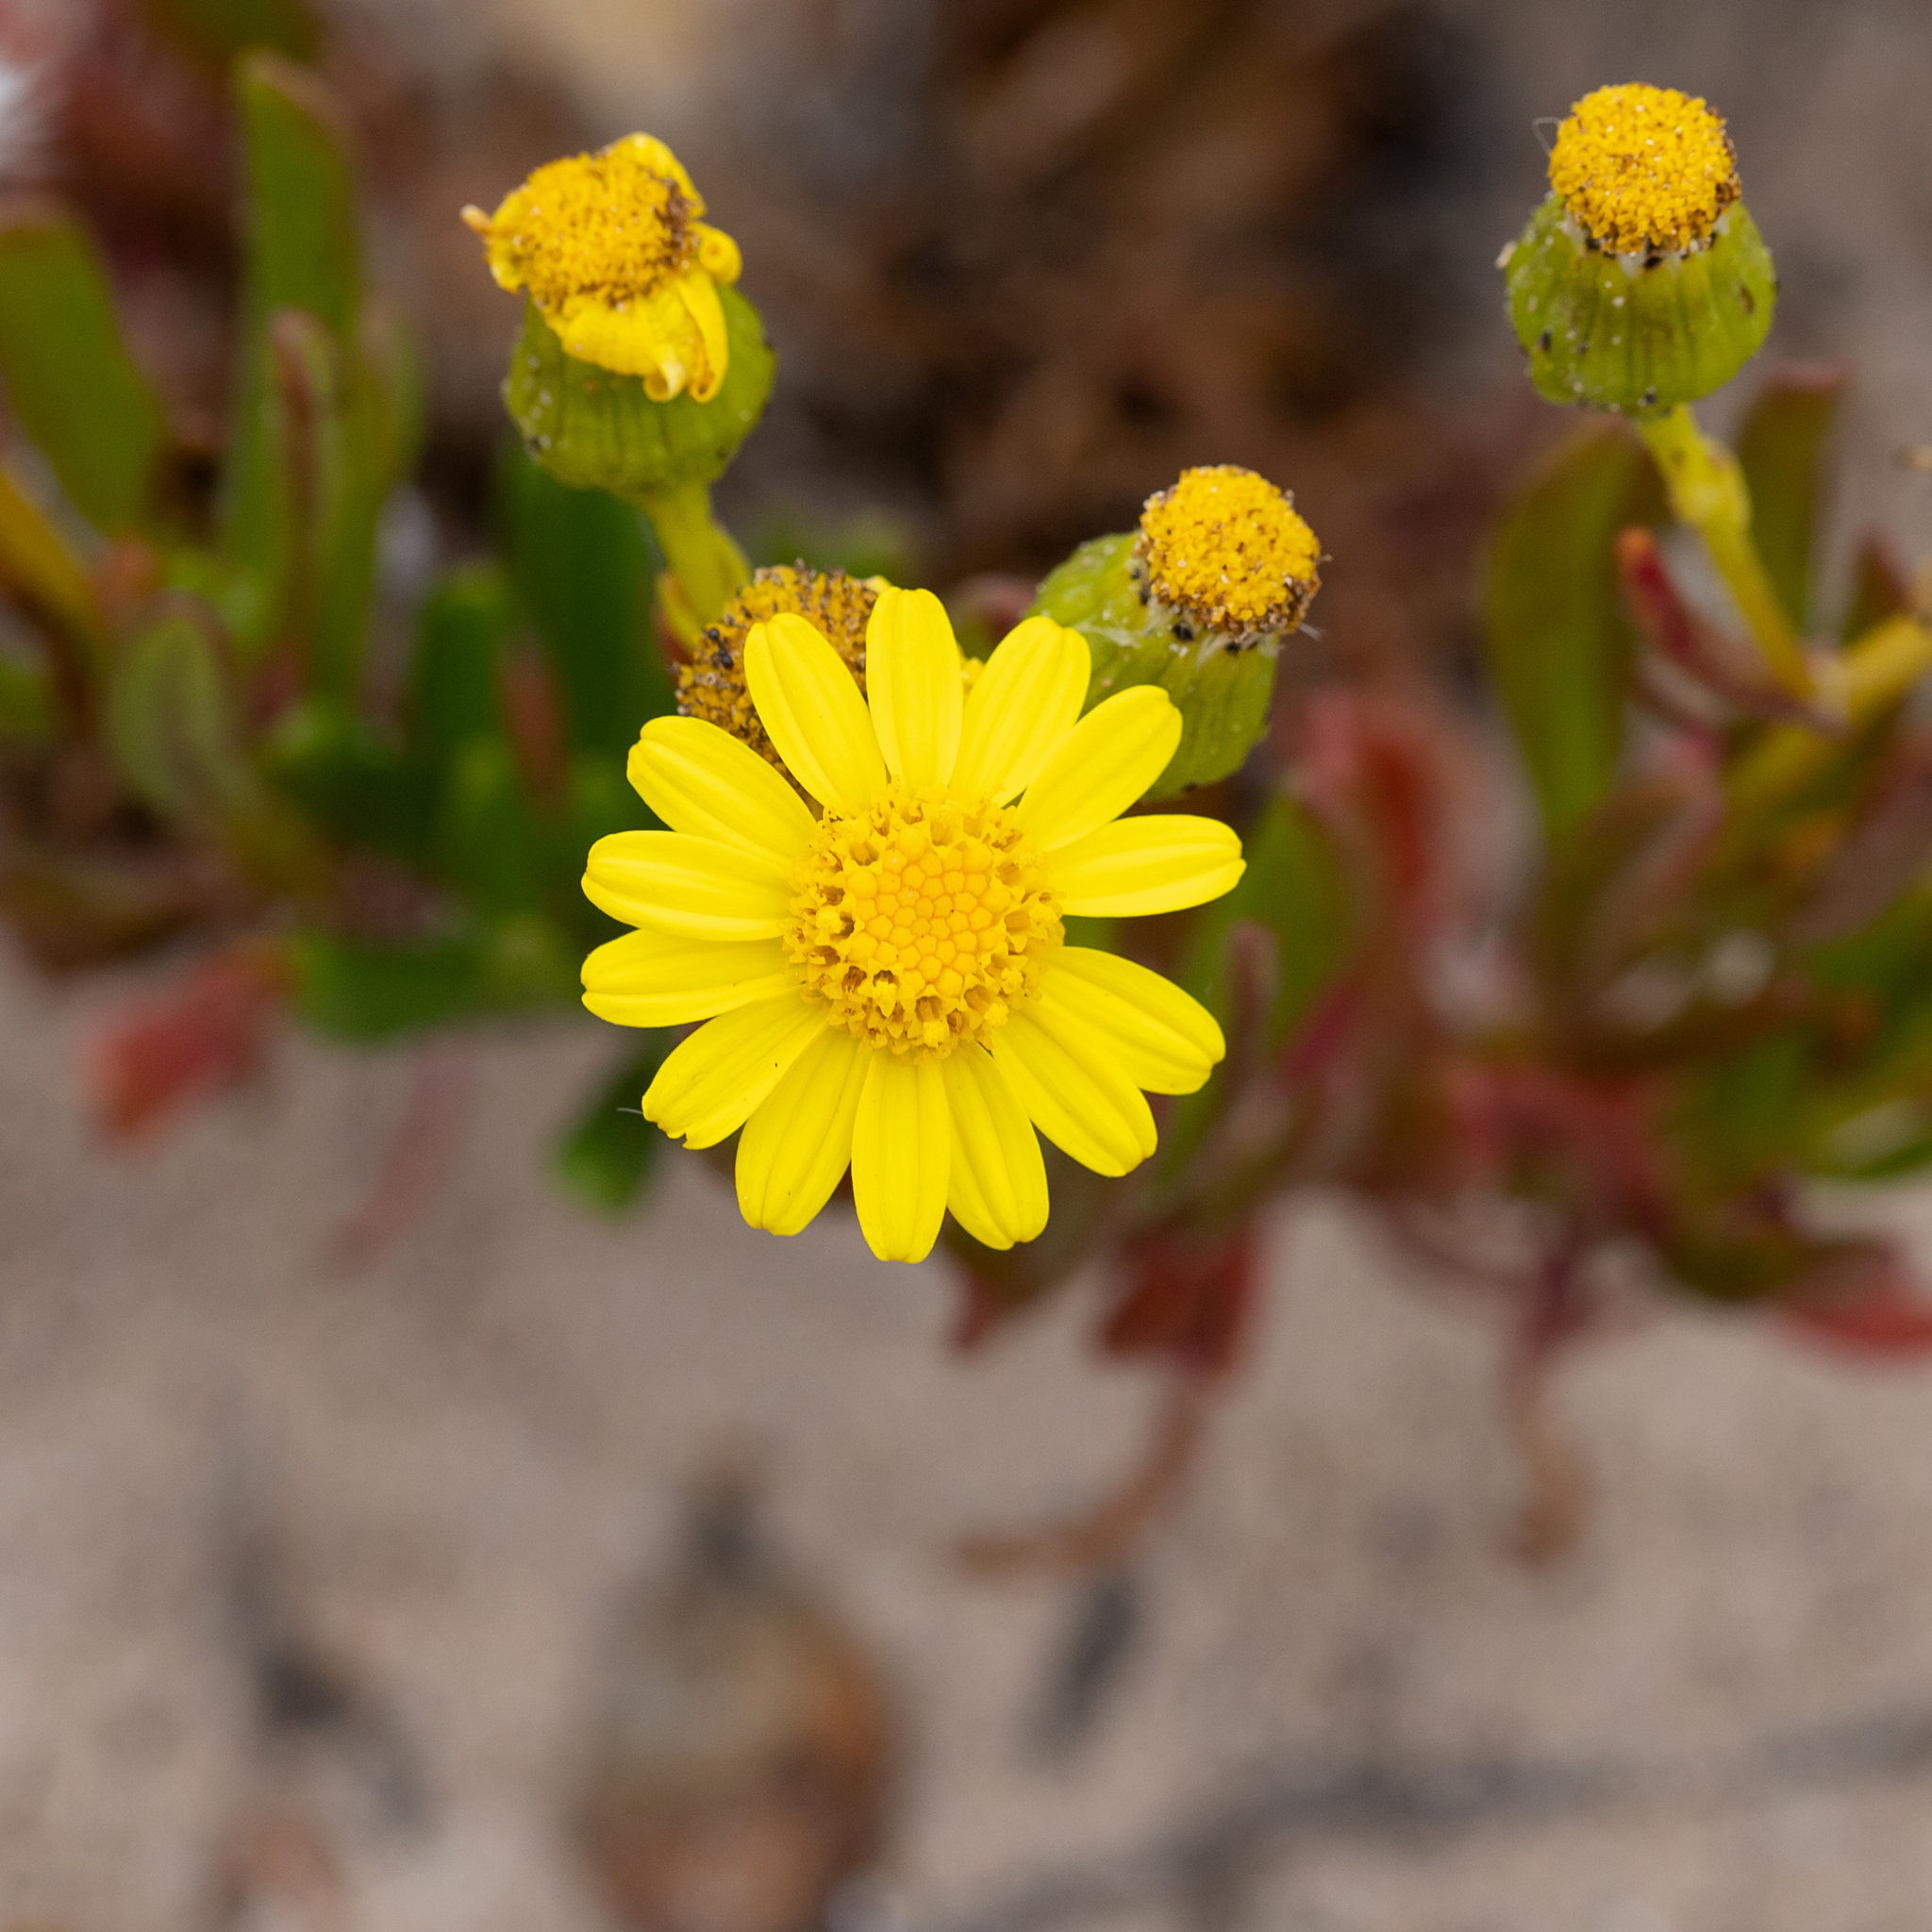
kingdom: Plantae
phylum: Tracheophyta
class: Magnoliopsida
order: Asterales
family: Asteraceae
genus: Senecio
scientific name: Senecio pinnatifolius
